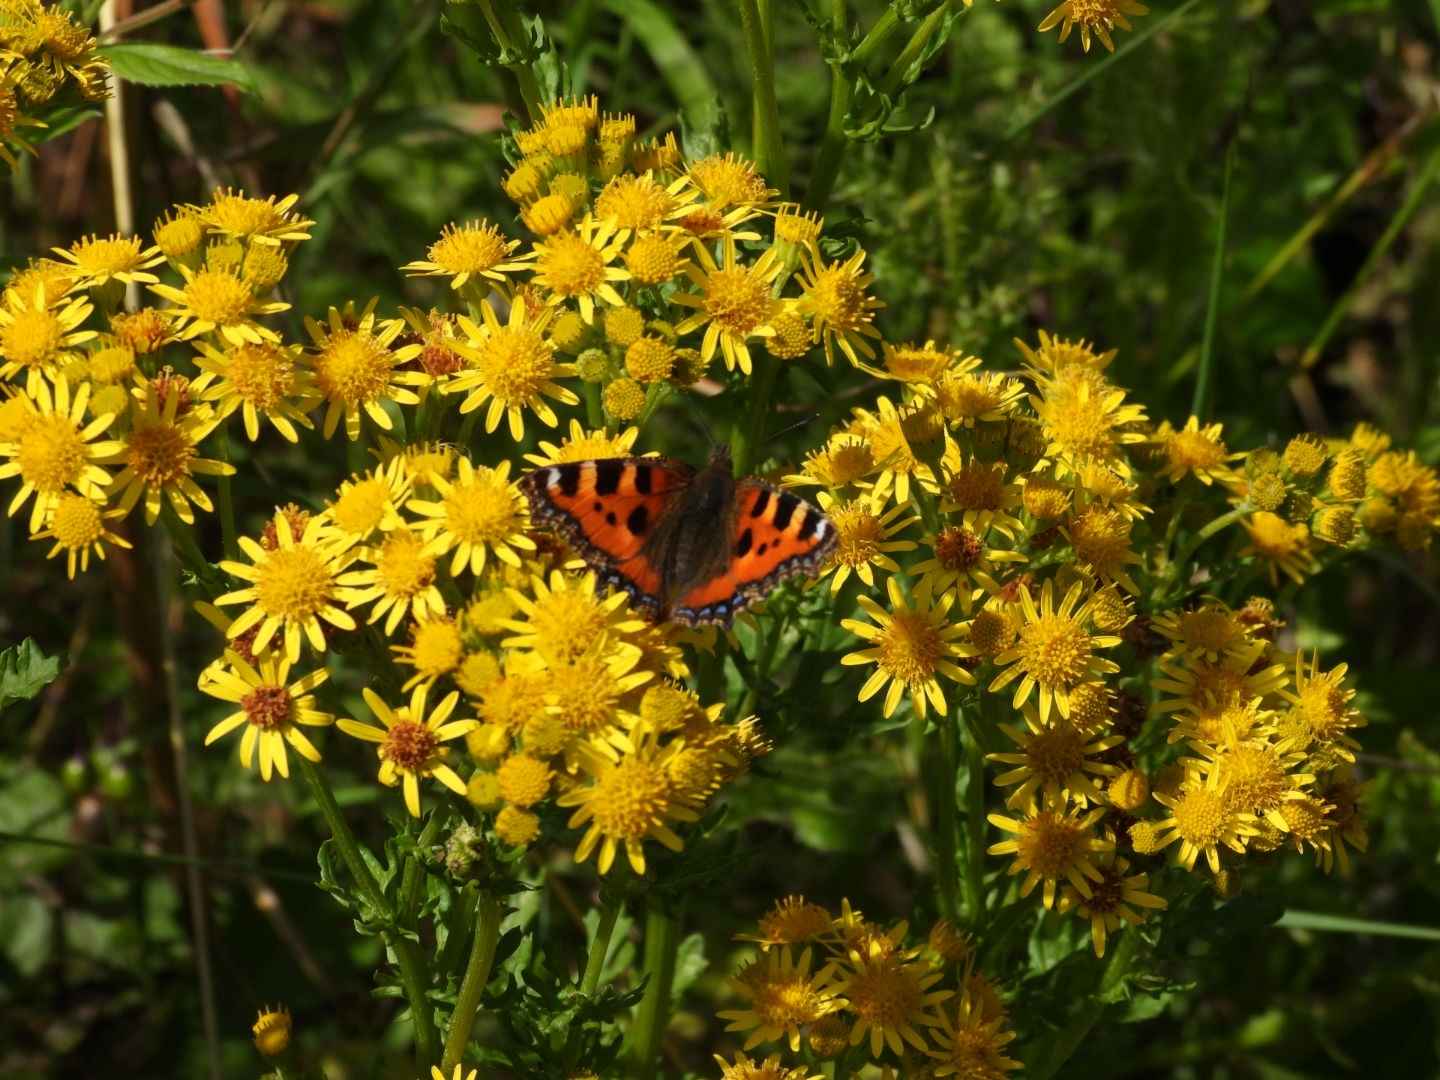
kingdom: Animalia
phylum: Arthropoda
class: Insecta
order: Lepidoptera
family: Nymphalidae
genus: Aglais
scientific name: Aglais urticae
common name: Small tortoiseshell
